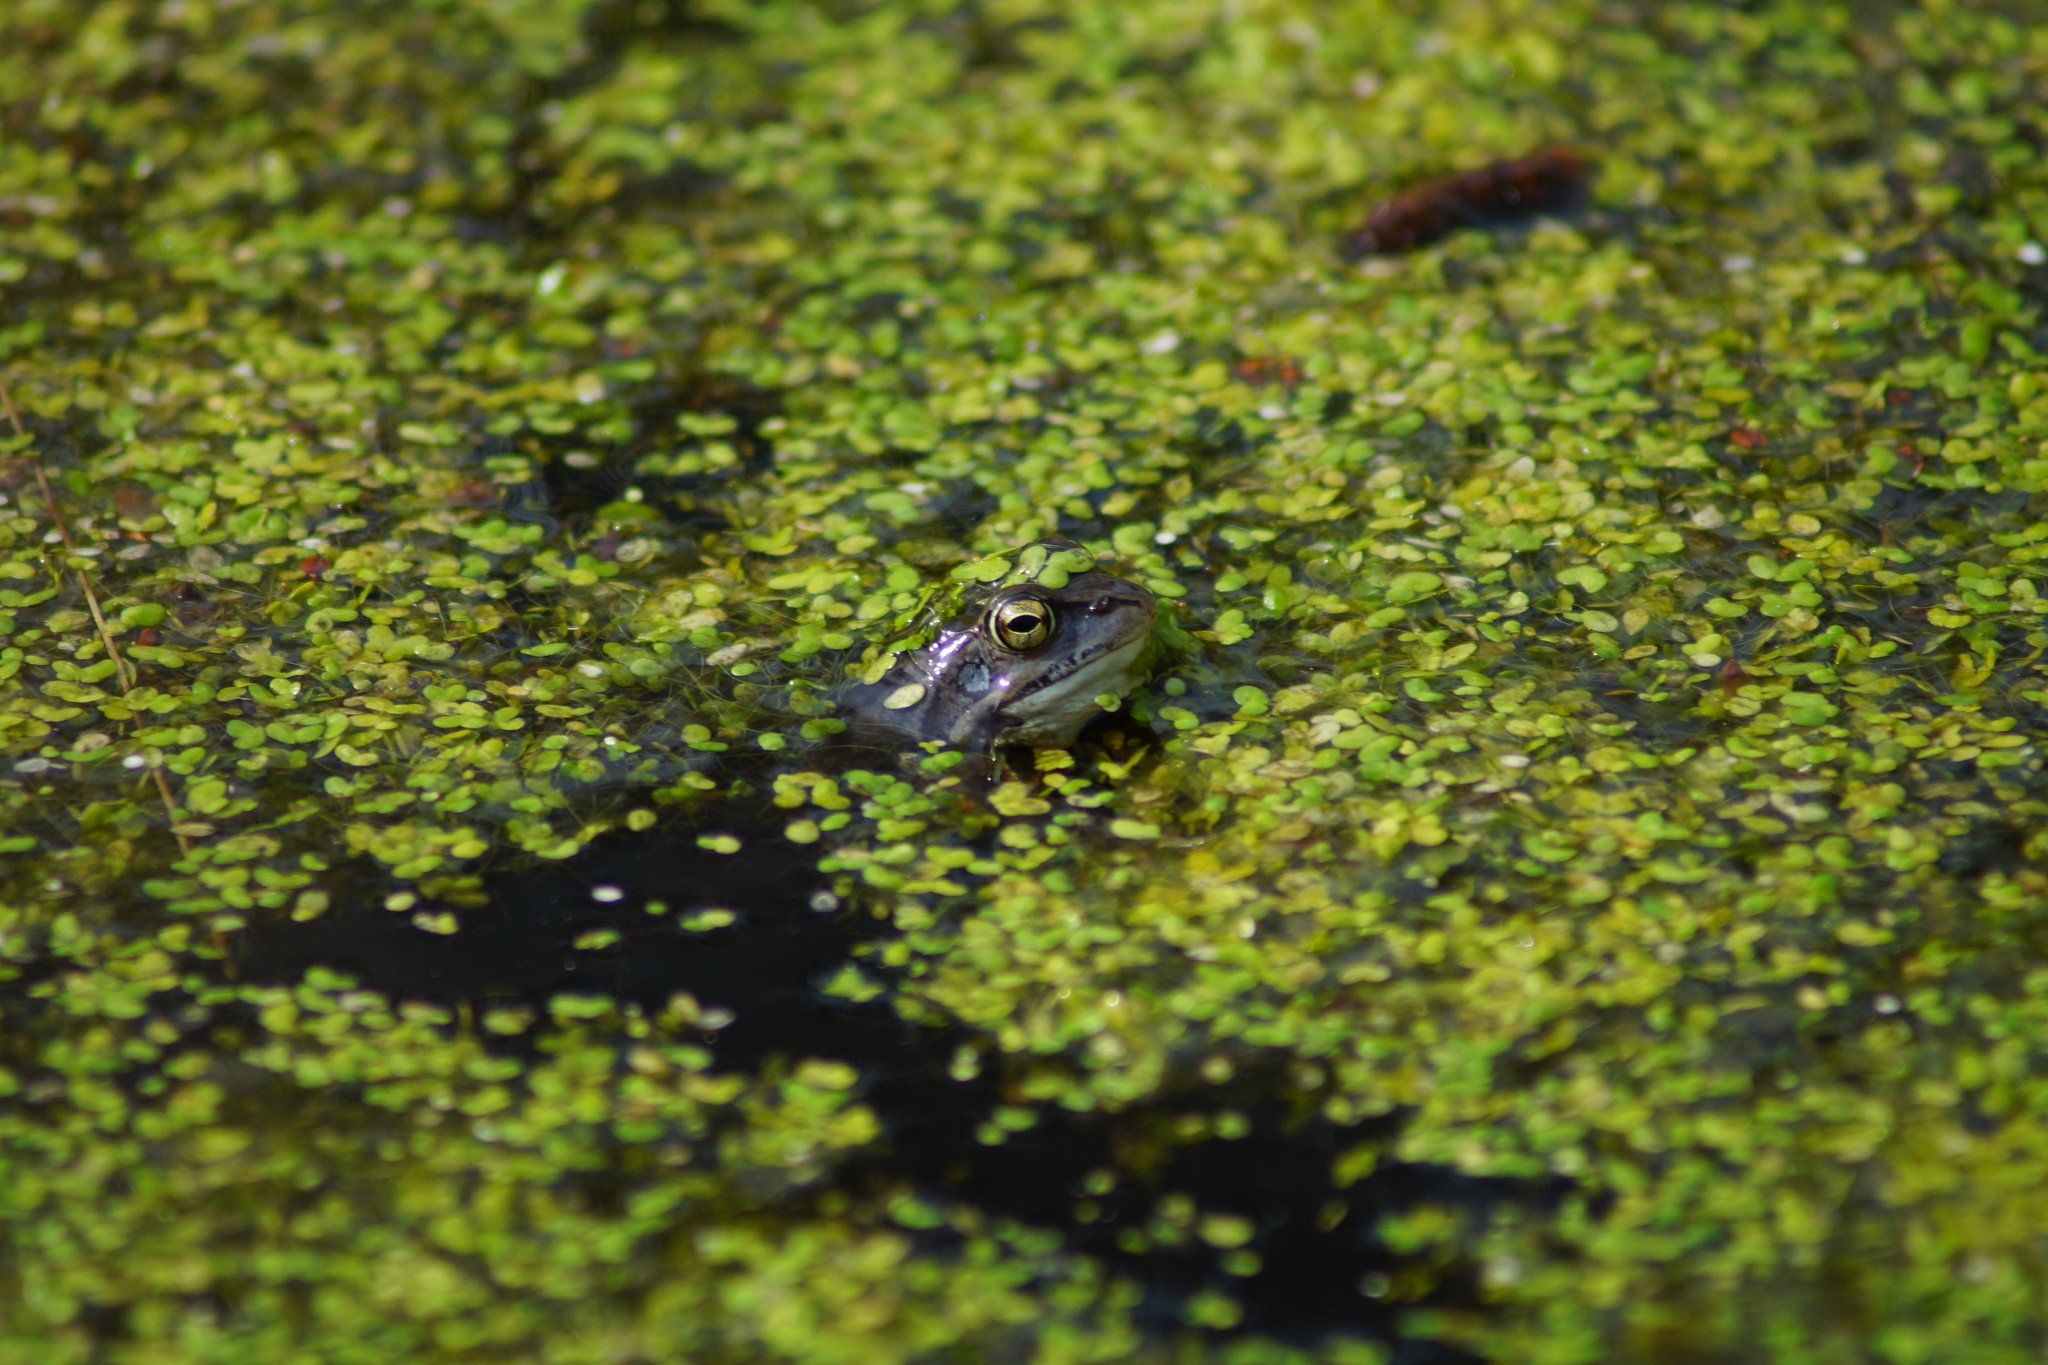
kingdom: Animalia
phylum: Chordata
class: Amphibia
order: Anura
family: Ranidae
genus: Rana
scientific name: Rana arvalis
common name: Moor frog
